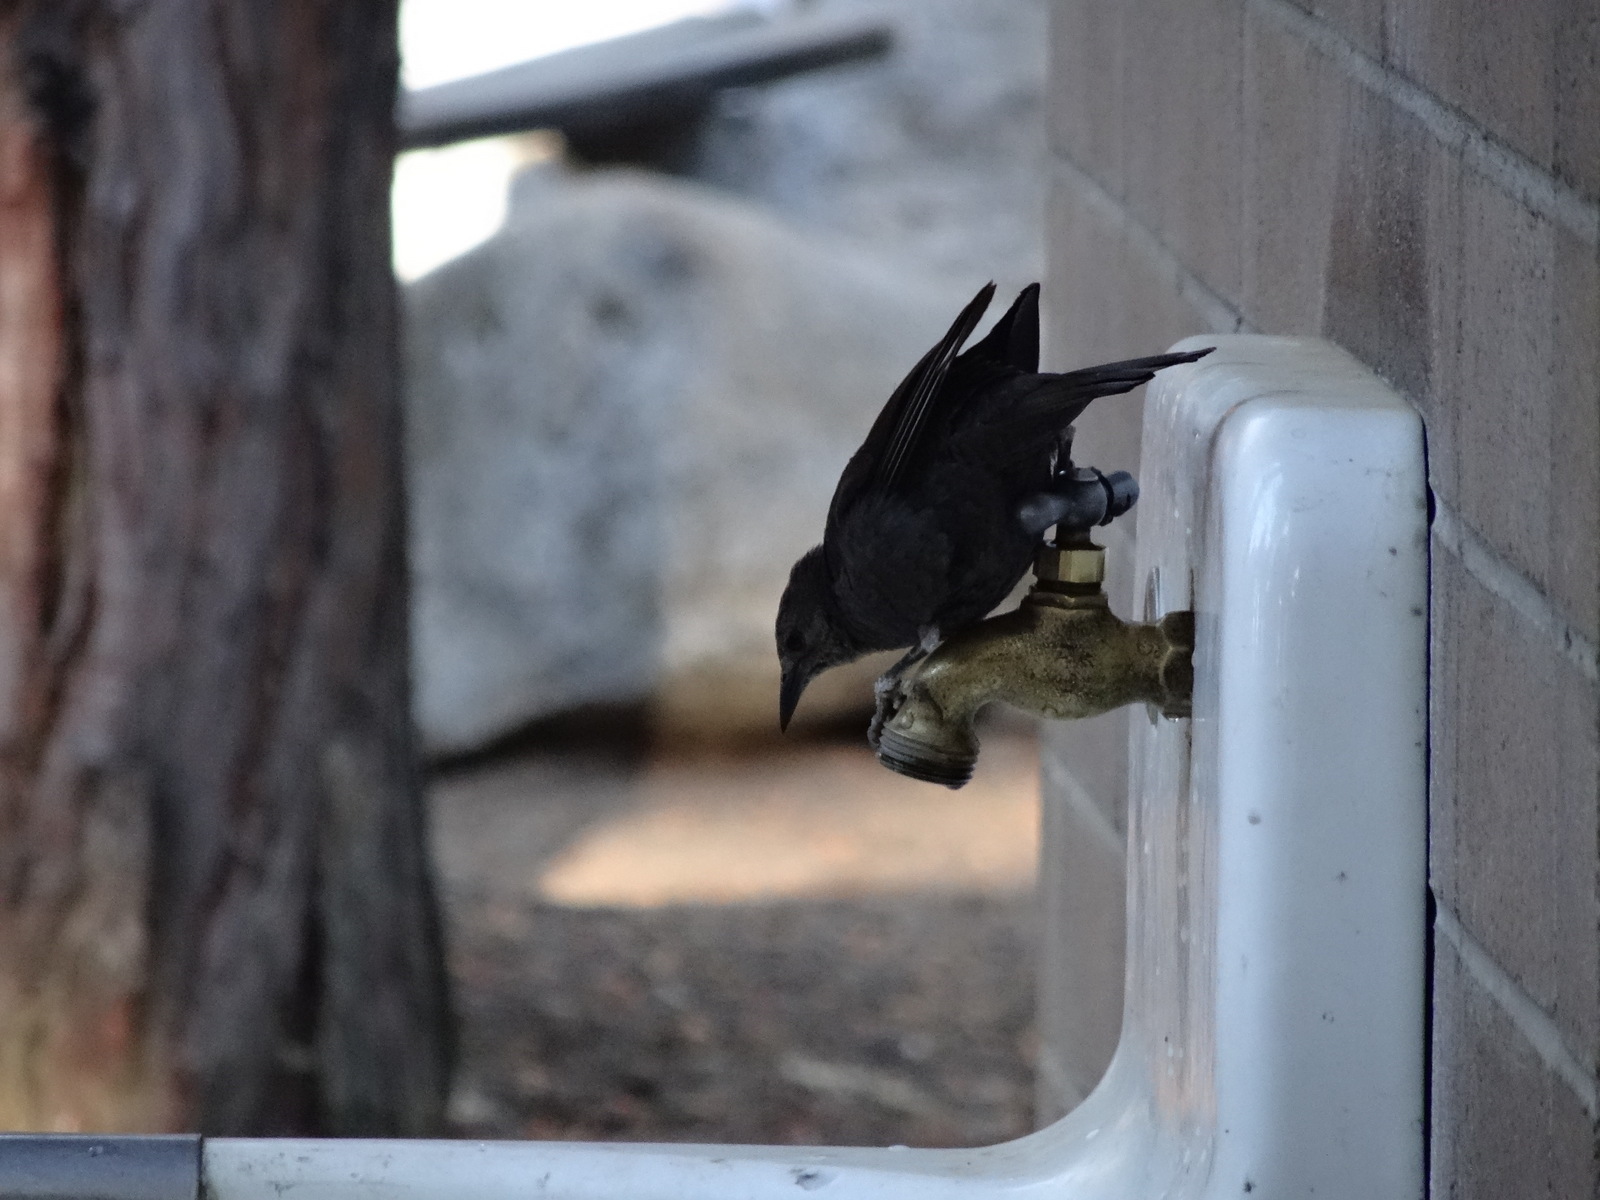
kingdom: Animalia
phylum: Chordata
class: Aves
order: Passeriformes
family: Icteridae
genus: Euphagus
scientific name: Euphagus cyanocephalus
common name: Brewer's blackbird
